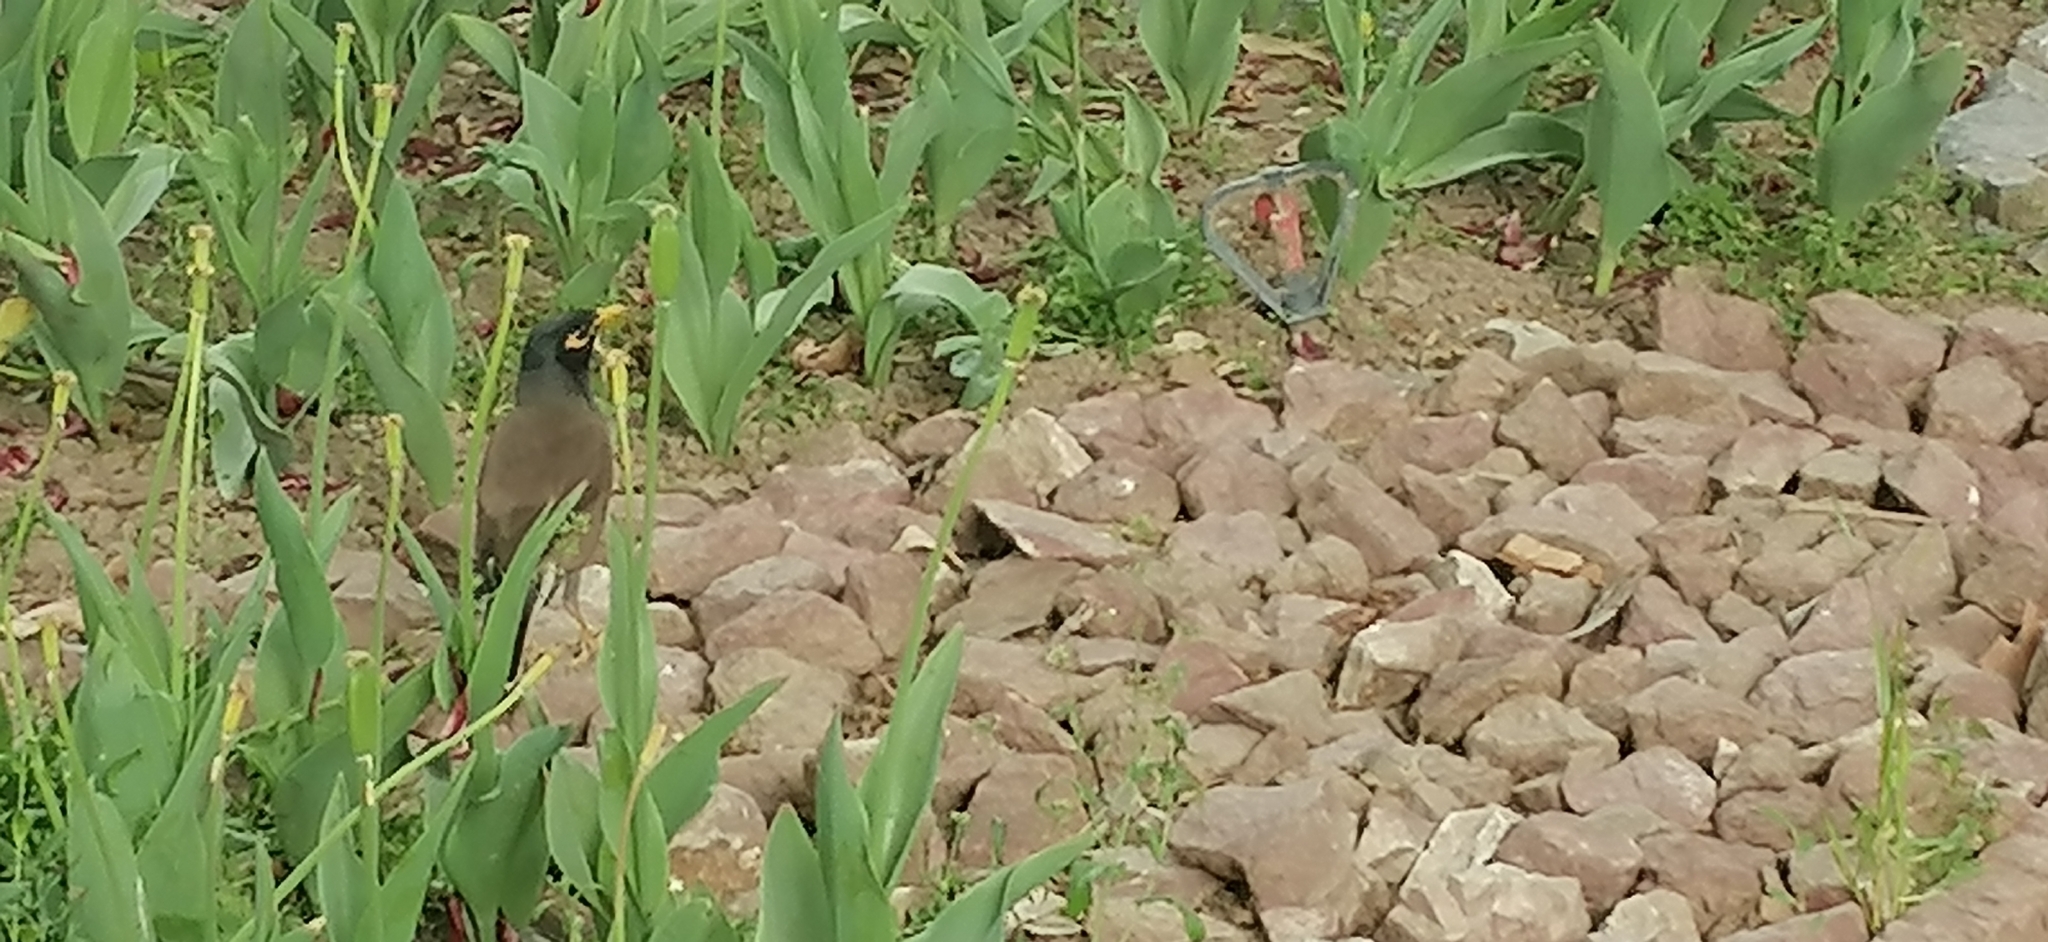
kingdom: Animalia
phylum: Chordata
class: Aves
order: Passeriformes
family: Sturnidae
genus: Acridotheres
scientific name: Acridotheres tristis
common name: Common myna
